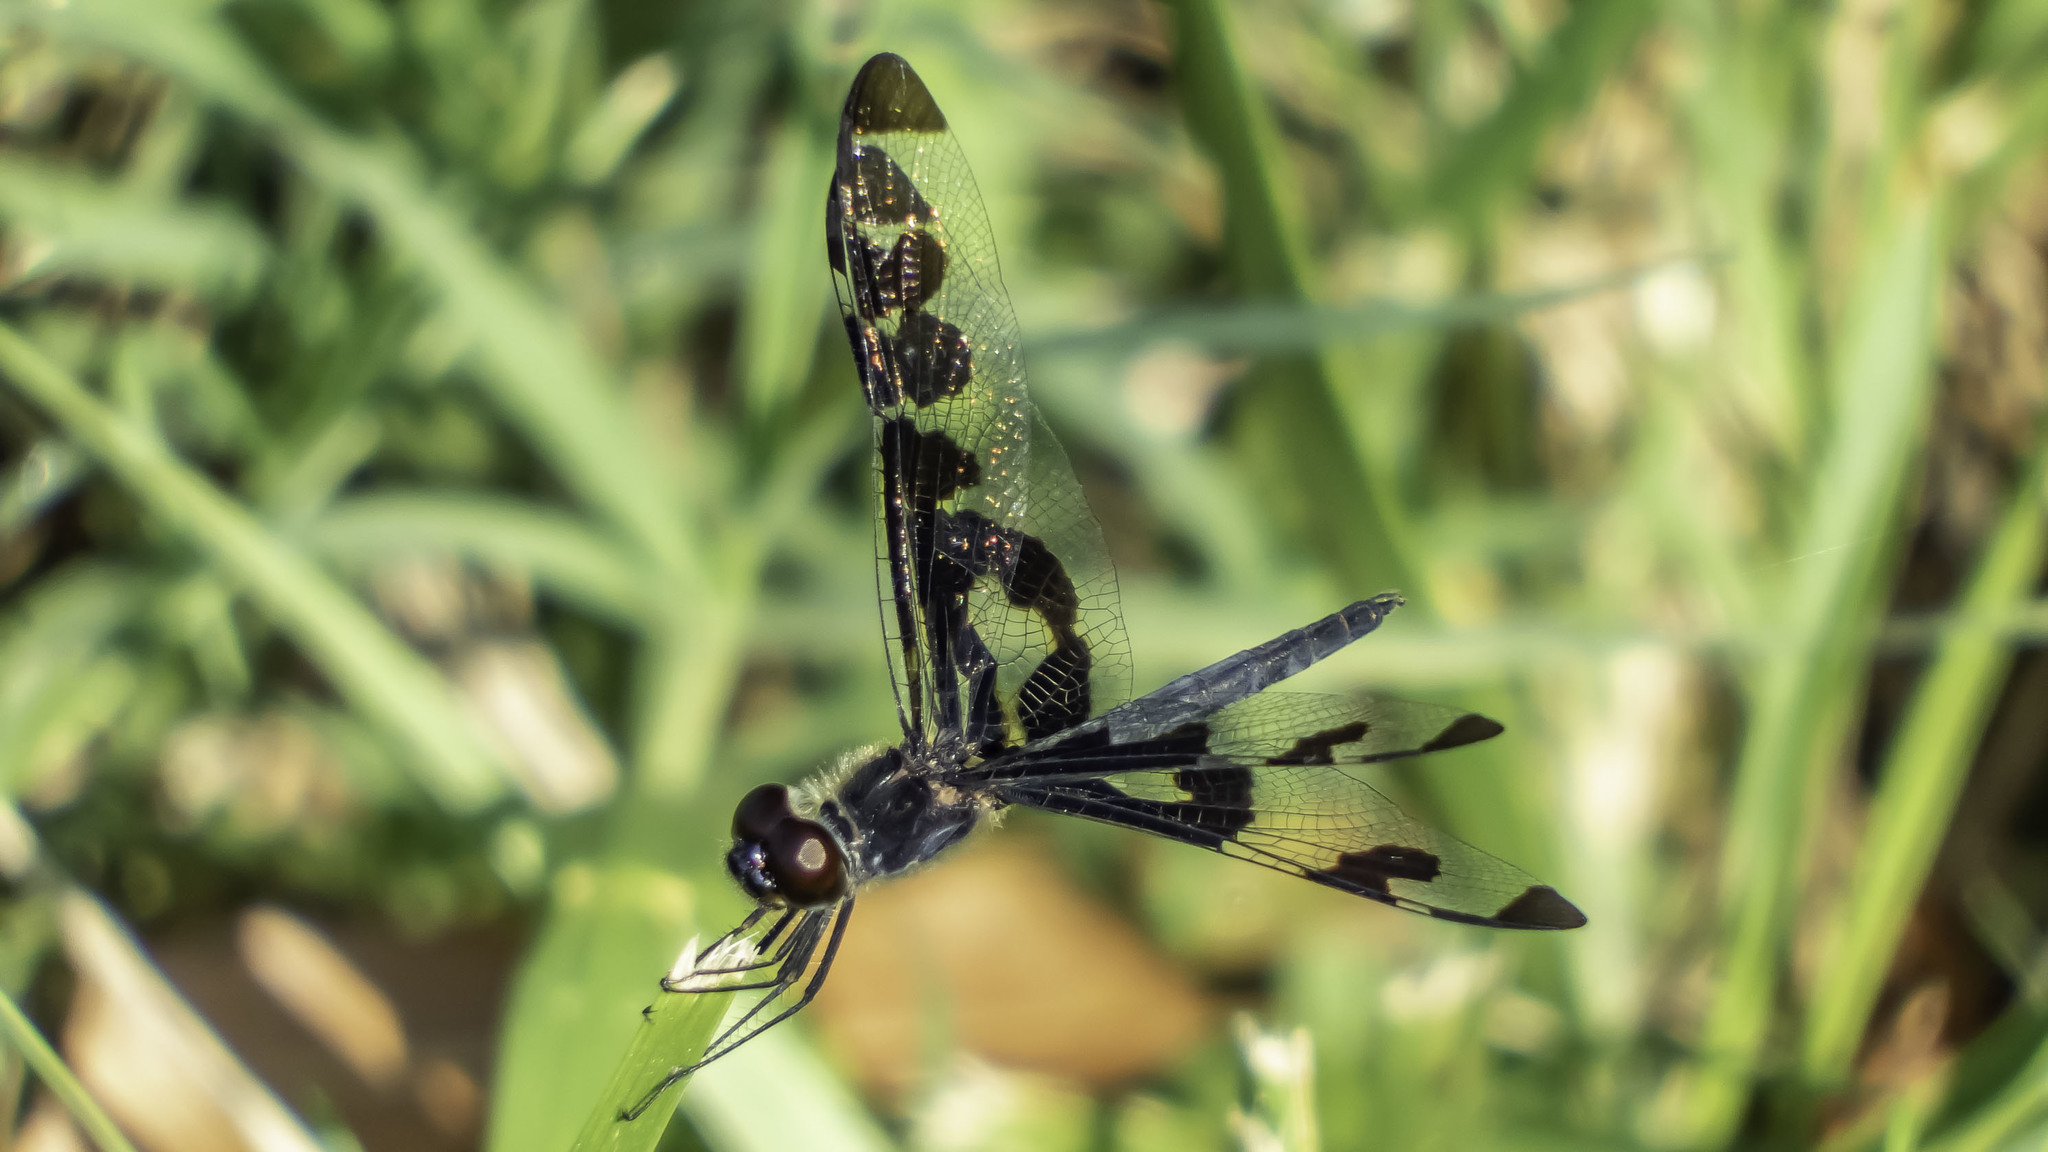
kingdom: Animalia
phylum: Arthropoda
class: Insecta
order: Odonata
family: Libellulidae
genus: Celithemis
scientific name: Celithemis fasciata
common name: Banded pennant
